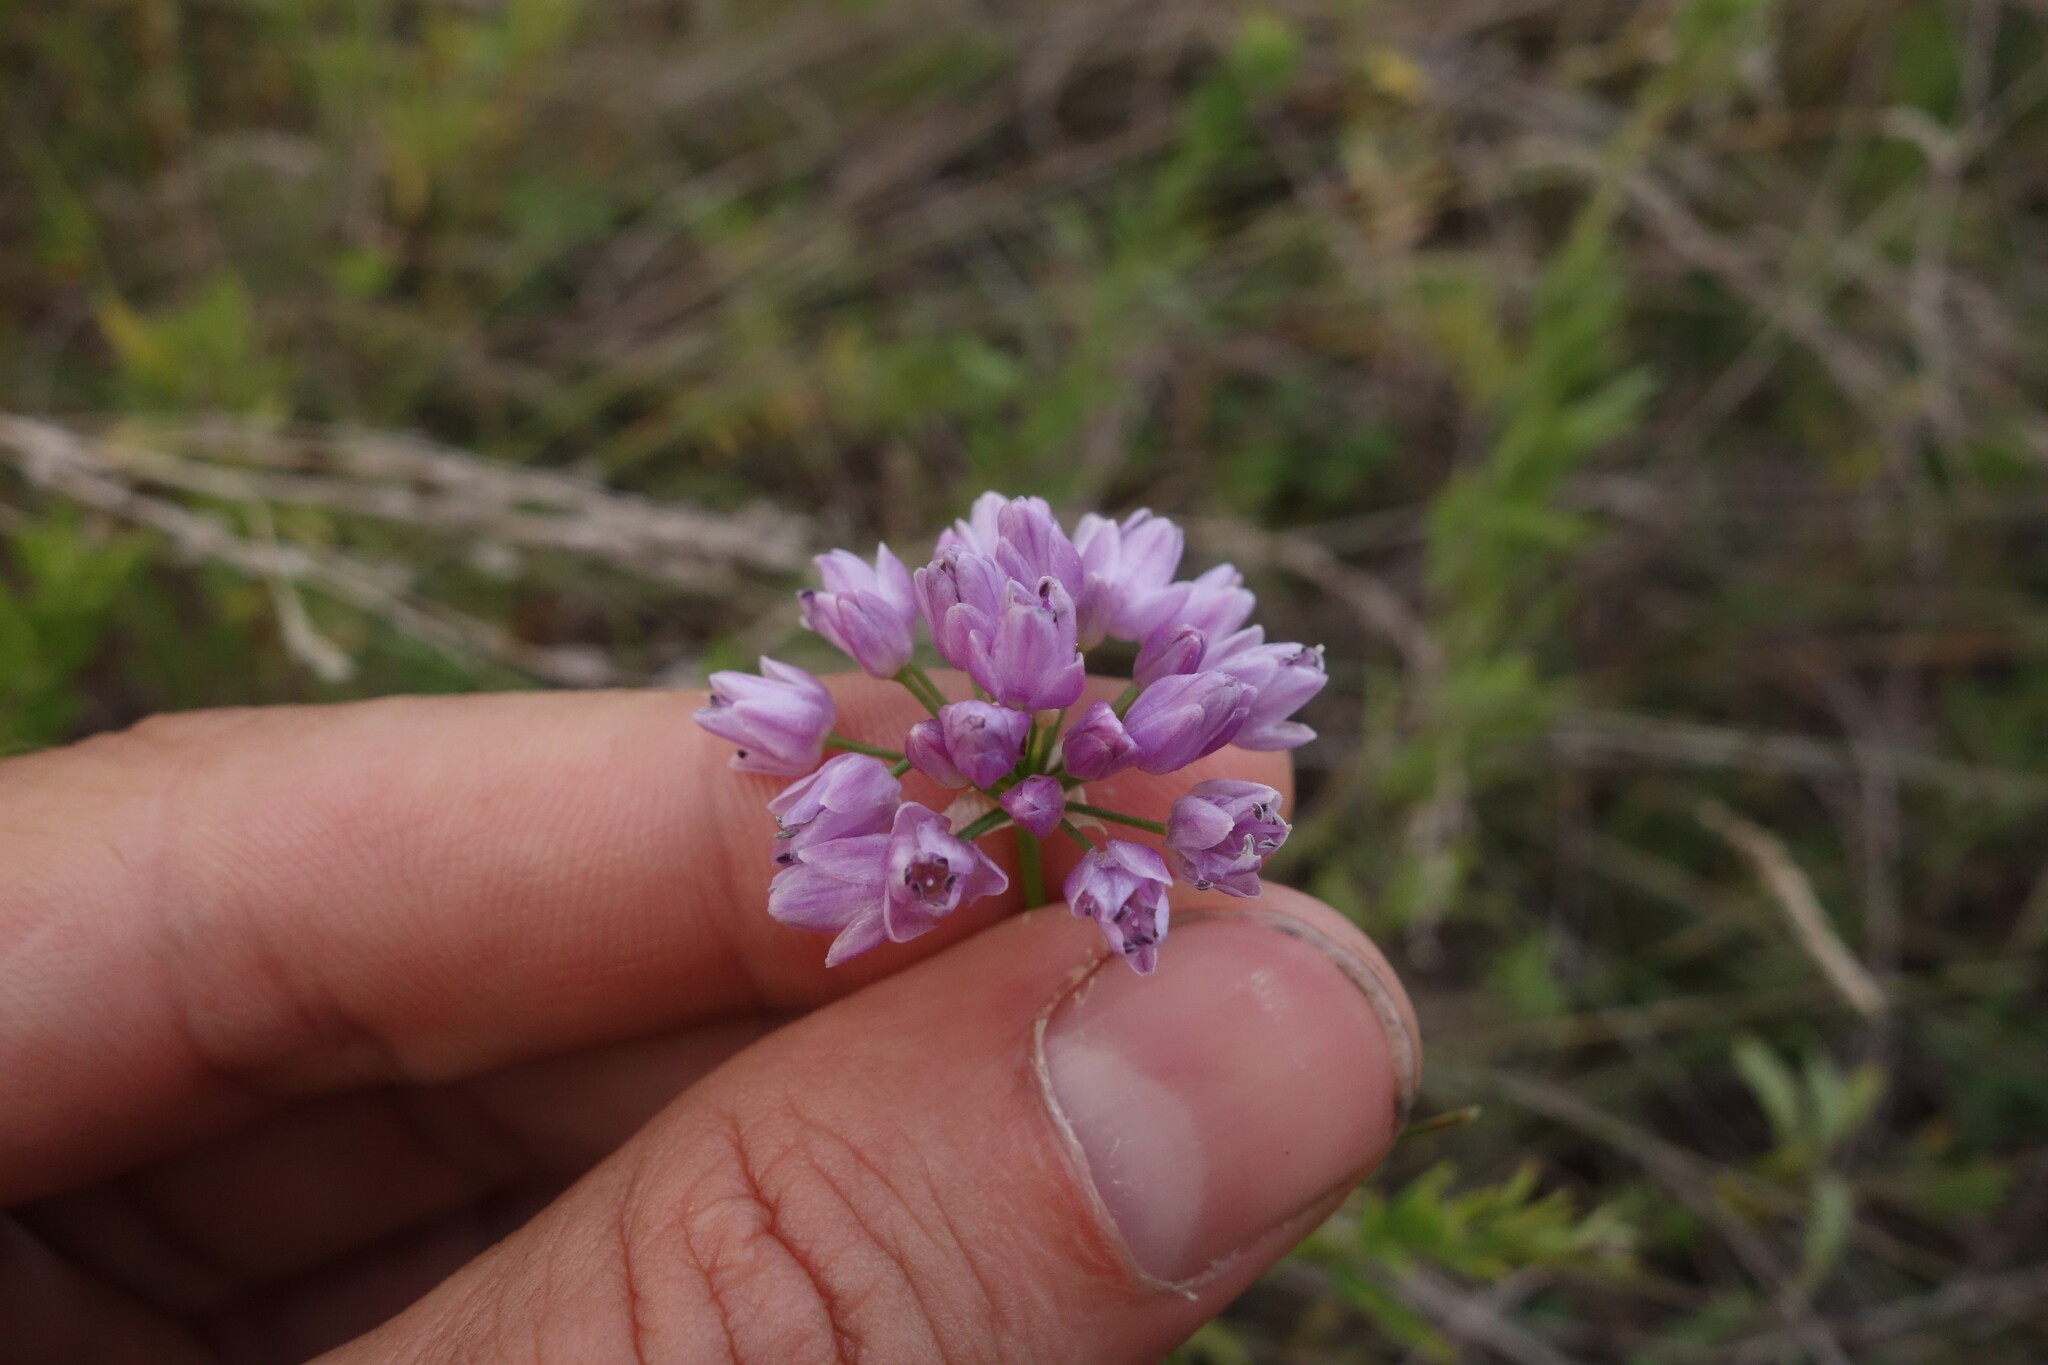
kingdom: Plantae
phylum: Tracheophyta
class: Liliopsida
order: Asparagales
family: Amaryllidaceae
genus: Allium
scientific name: Allium bidentatum
